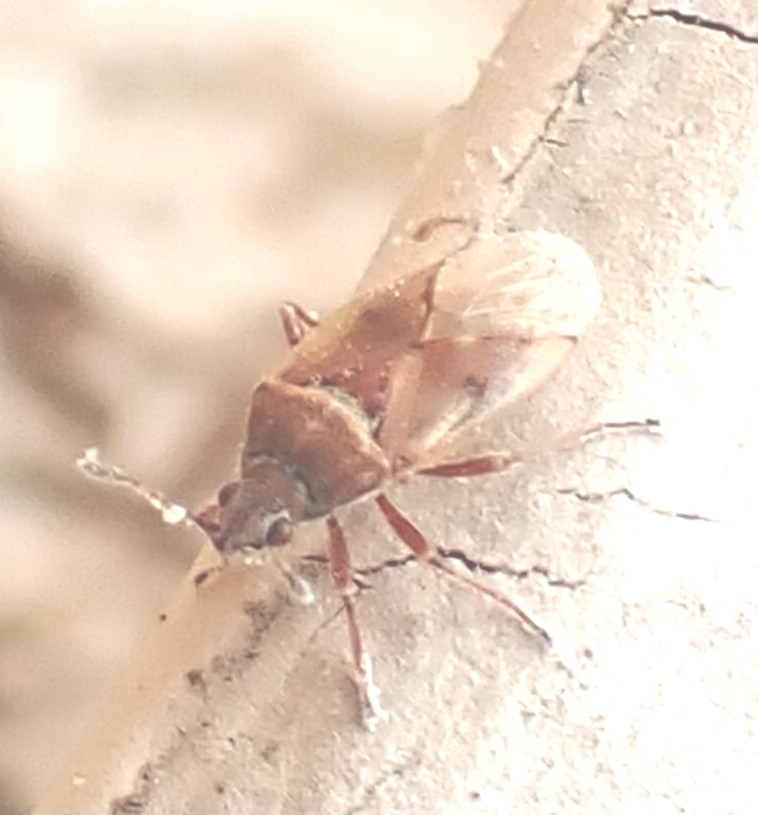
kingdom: Animalia
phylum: Arthropoda
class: Insecta
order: Hemiptera
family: Lygaeidae
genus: Kleidocerys
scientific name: Kleidocerys resedae
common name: Birch catkin bug
